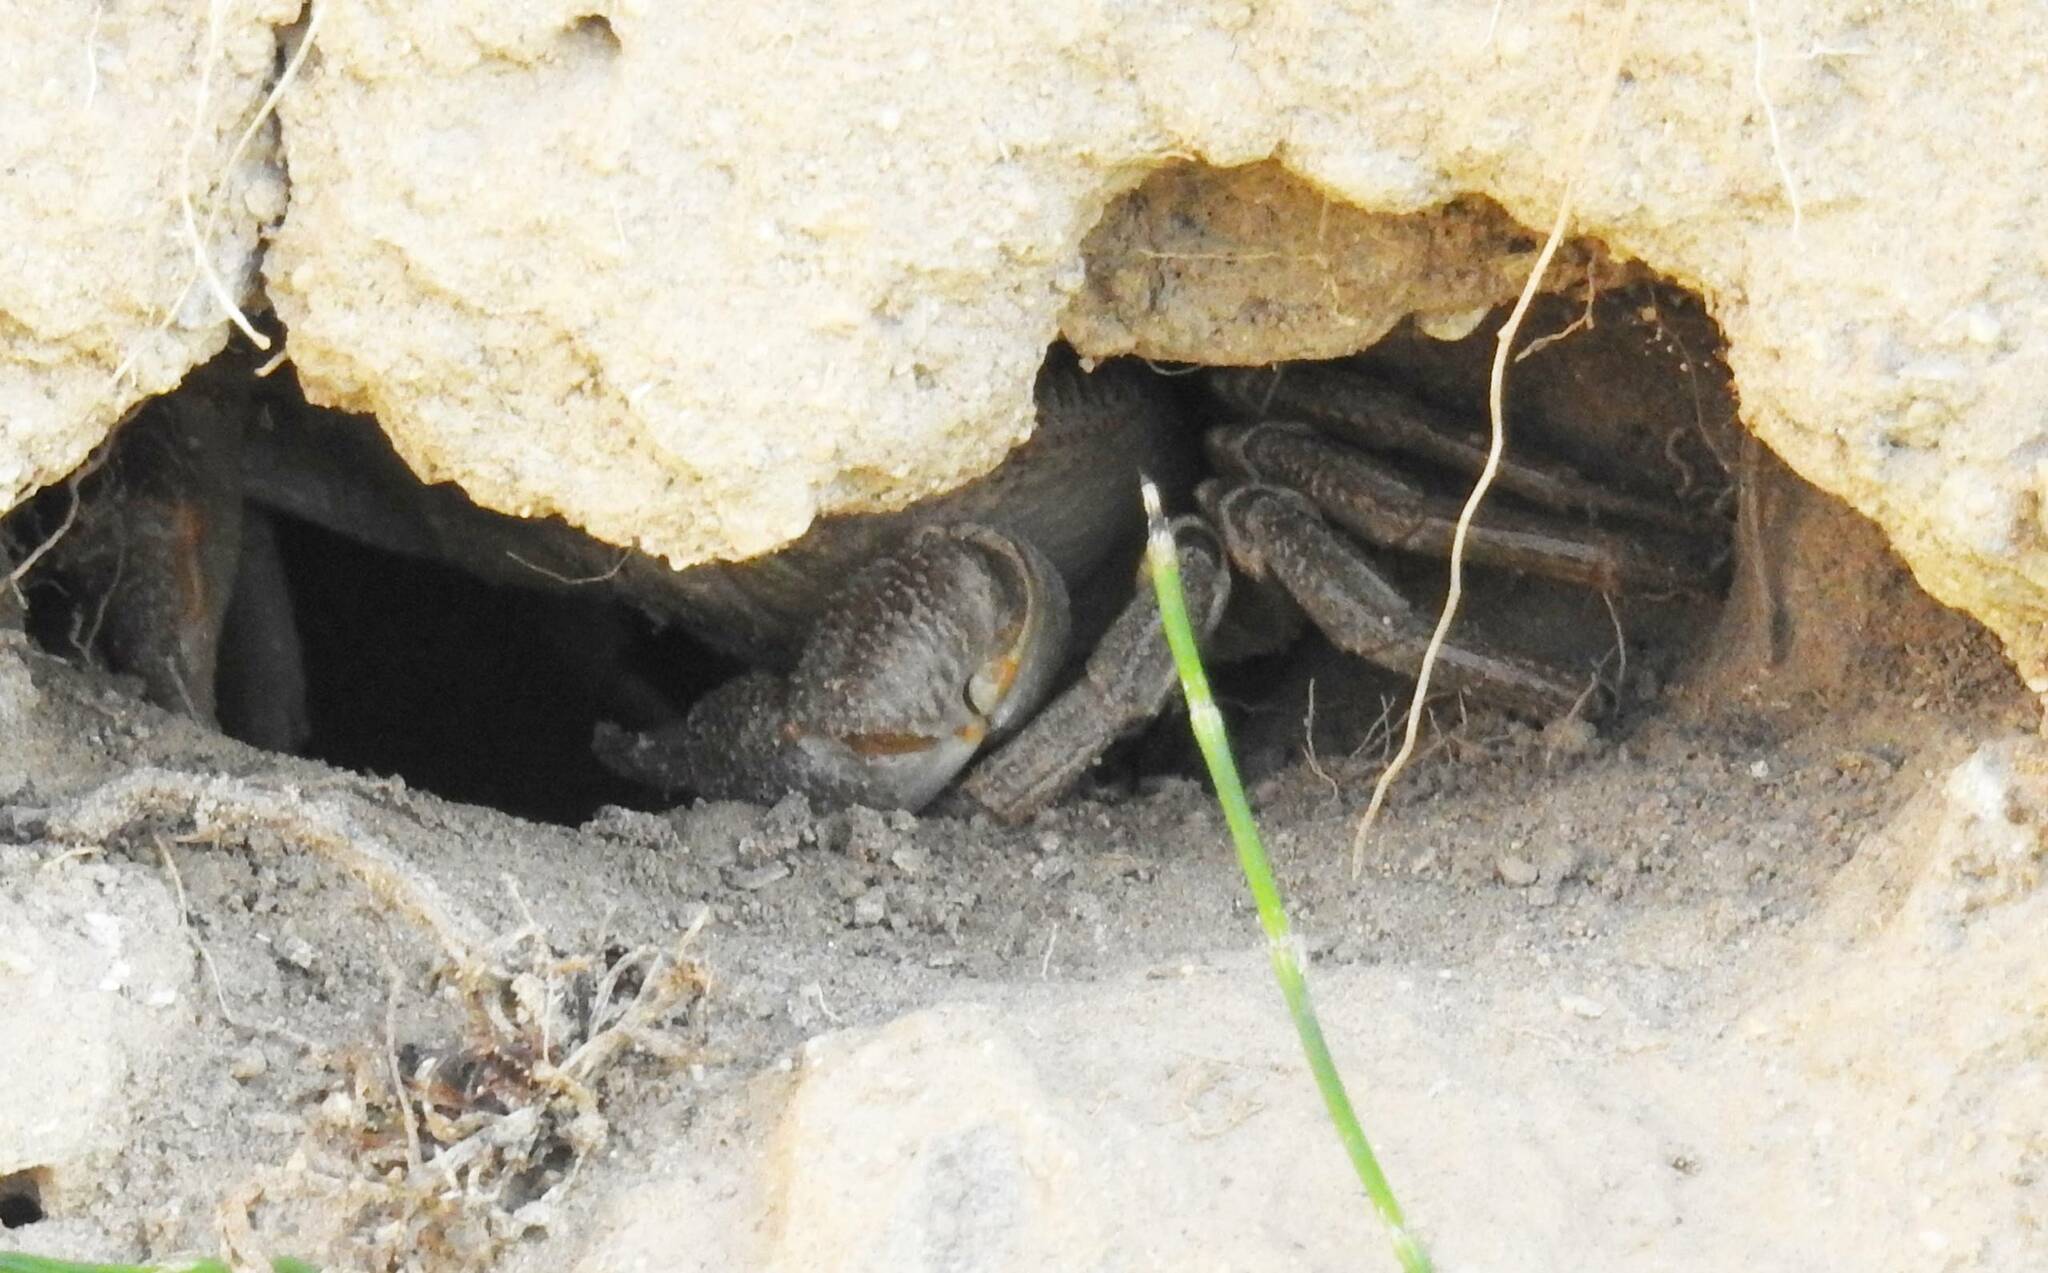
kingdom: Animalia
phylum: Arthropoda
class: Malacostraca
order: Decapoda
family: Potamidae
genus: Potamon
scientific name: Potamon algeriense
